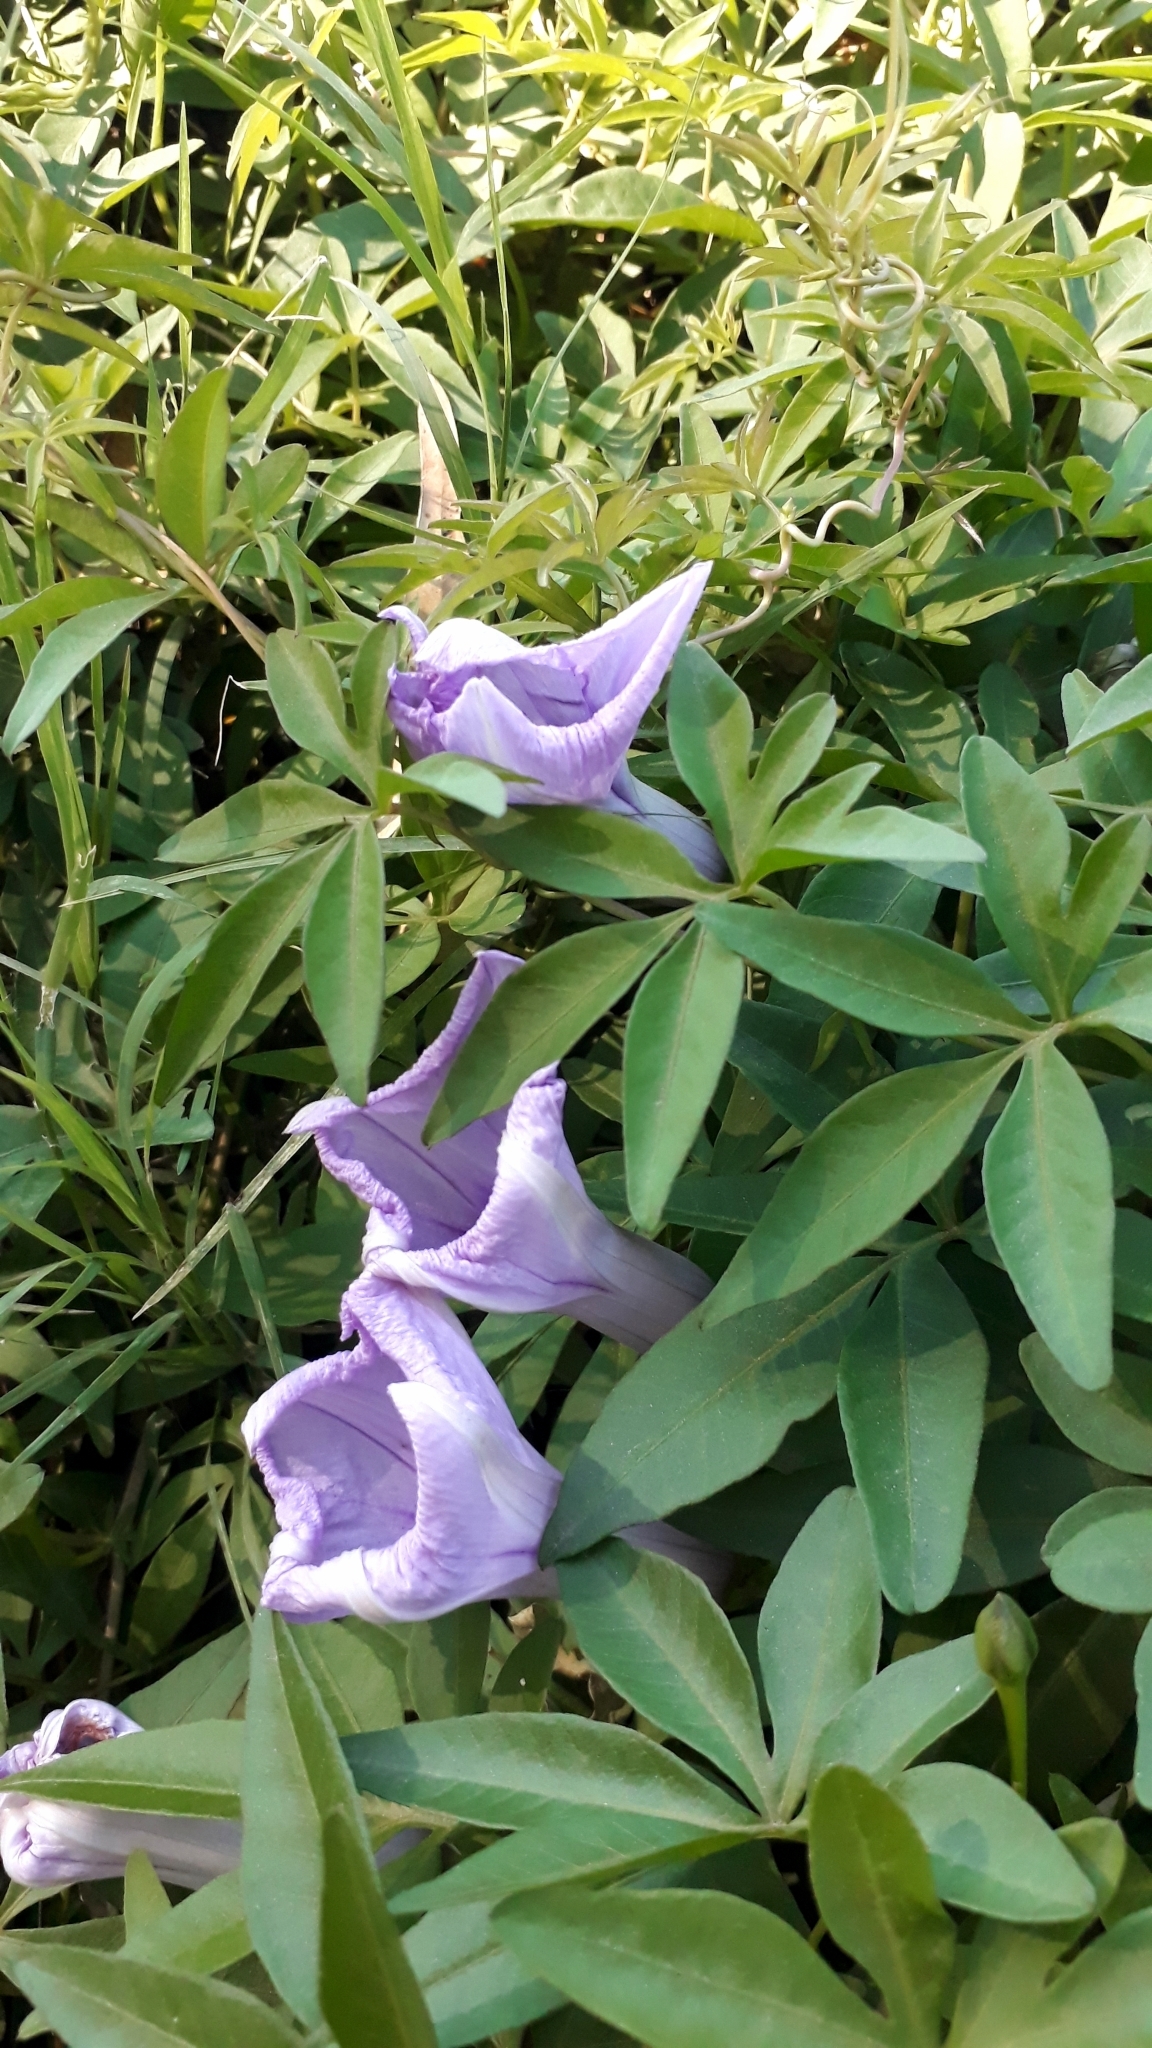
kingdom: Plantae
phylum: Tracheophyta
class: Magnoliopsida
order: Solanales
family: Convolvulaceae
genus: Ipomoea
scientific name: Ipomoea cairica
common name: Mile a minute vine
